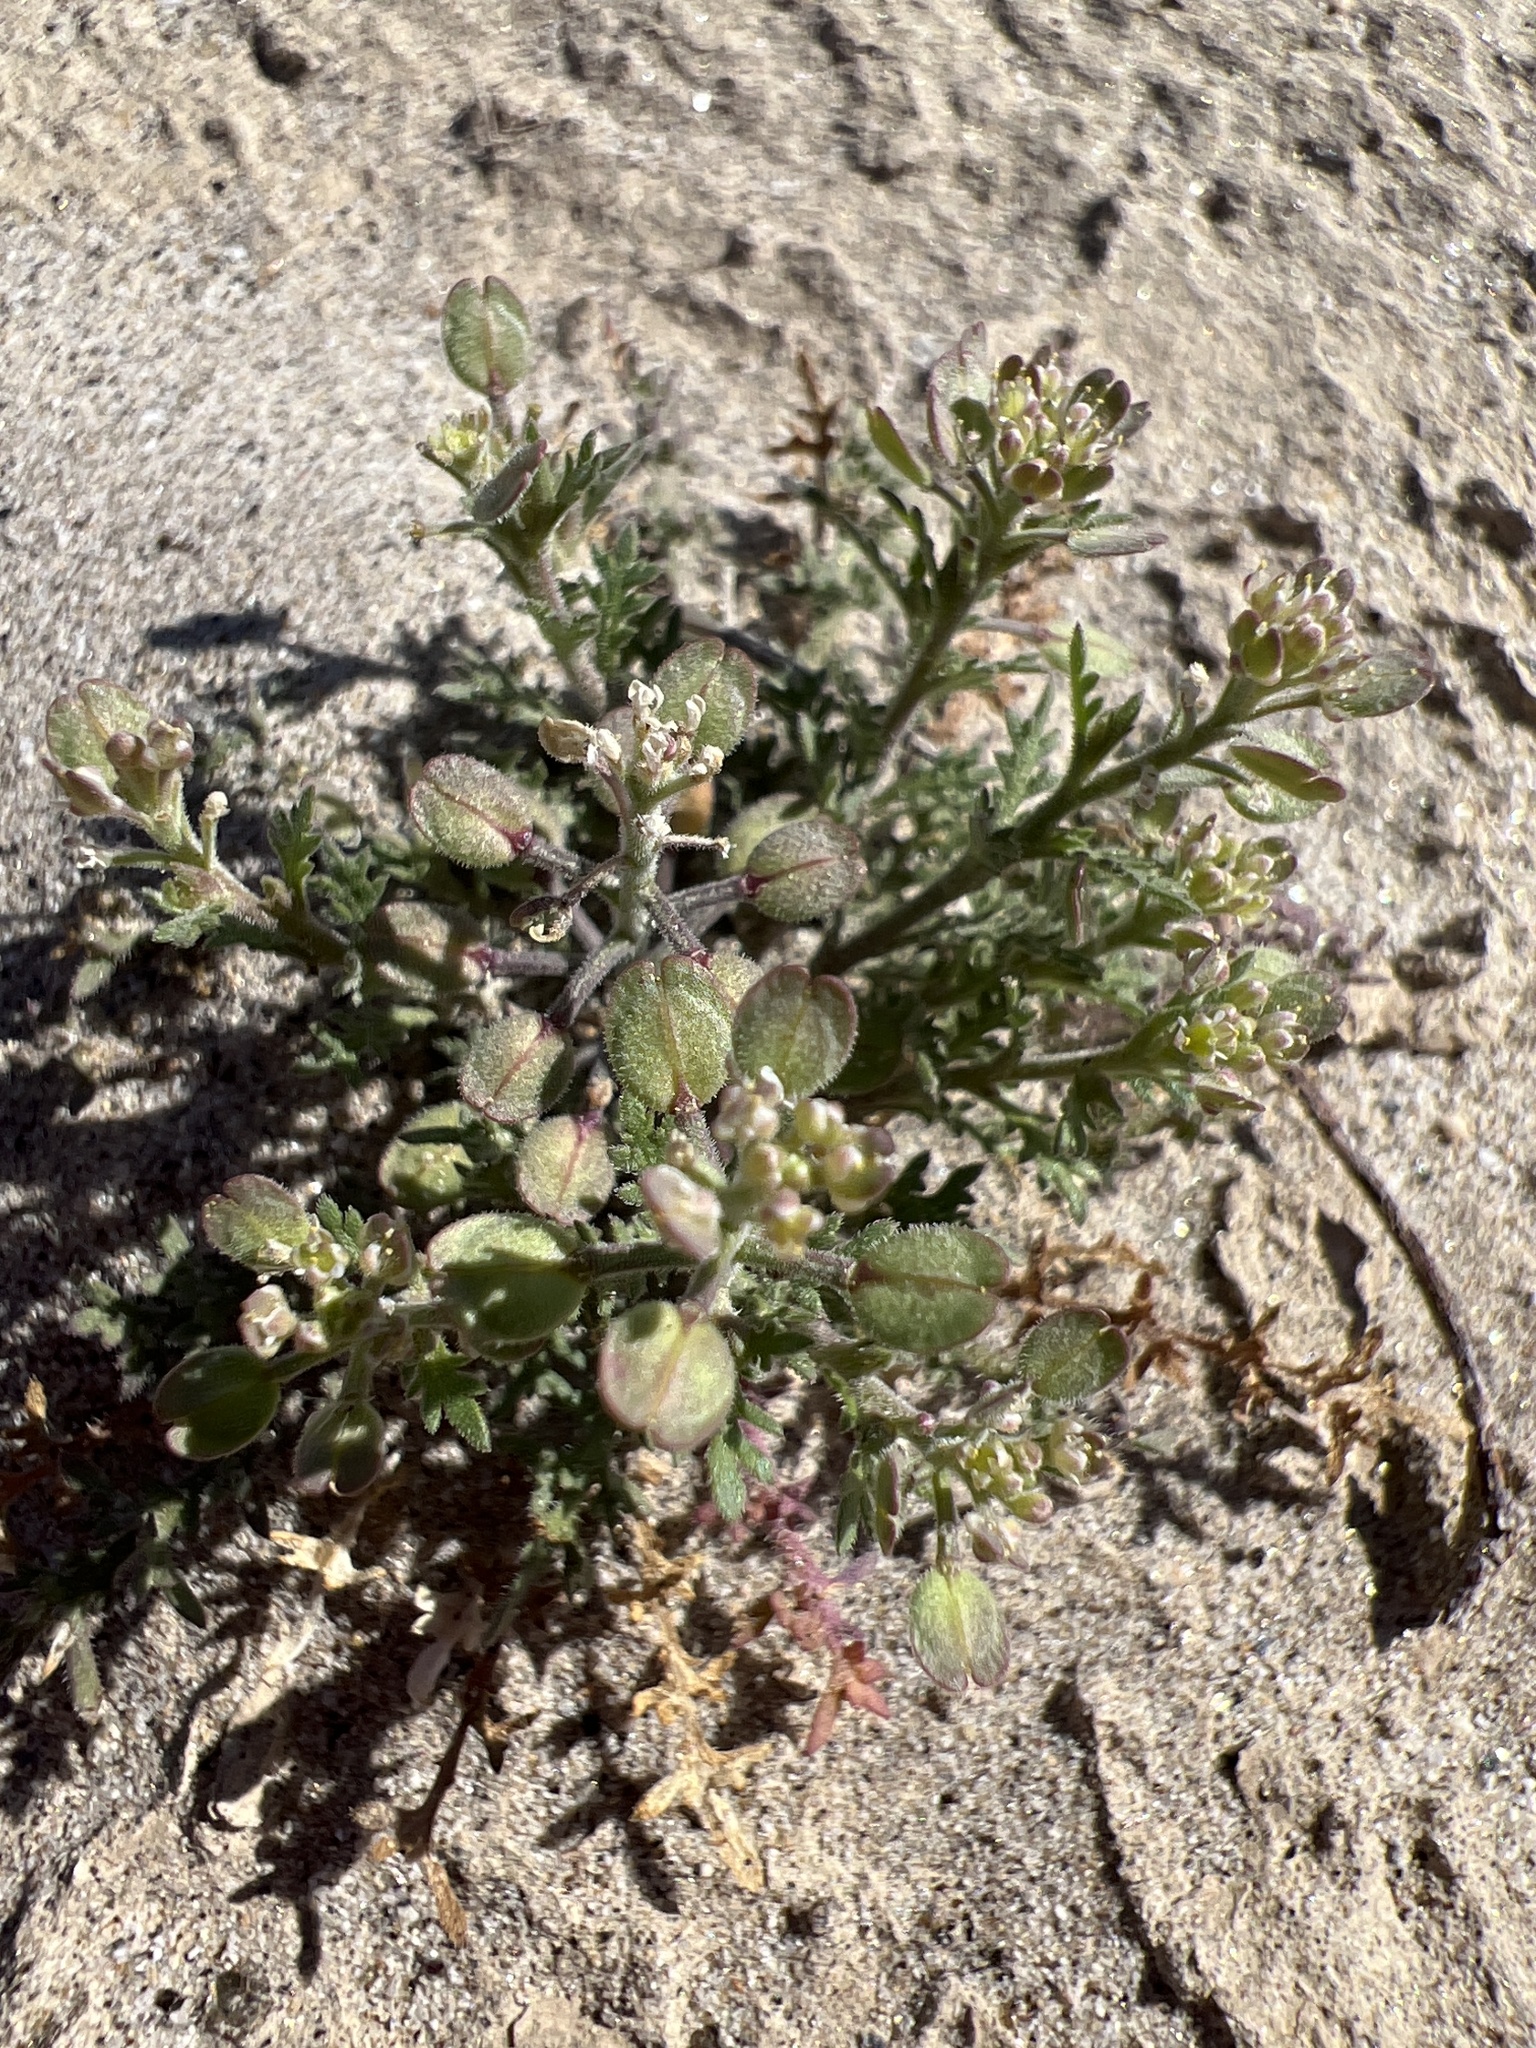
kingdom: Plantae
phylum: Tracheophyta
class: Magnoliopsida
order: Brassicales
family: Brassicaceae
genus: Lepidium
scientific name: Lepidium lasiocarpum
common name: Hairy-pod pepperwort
